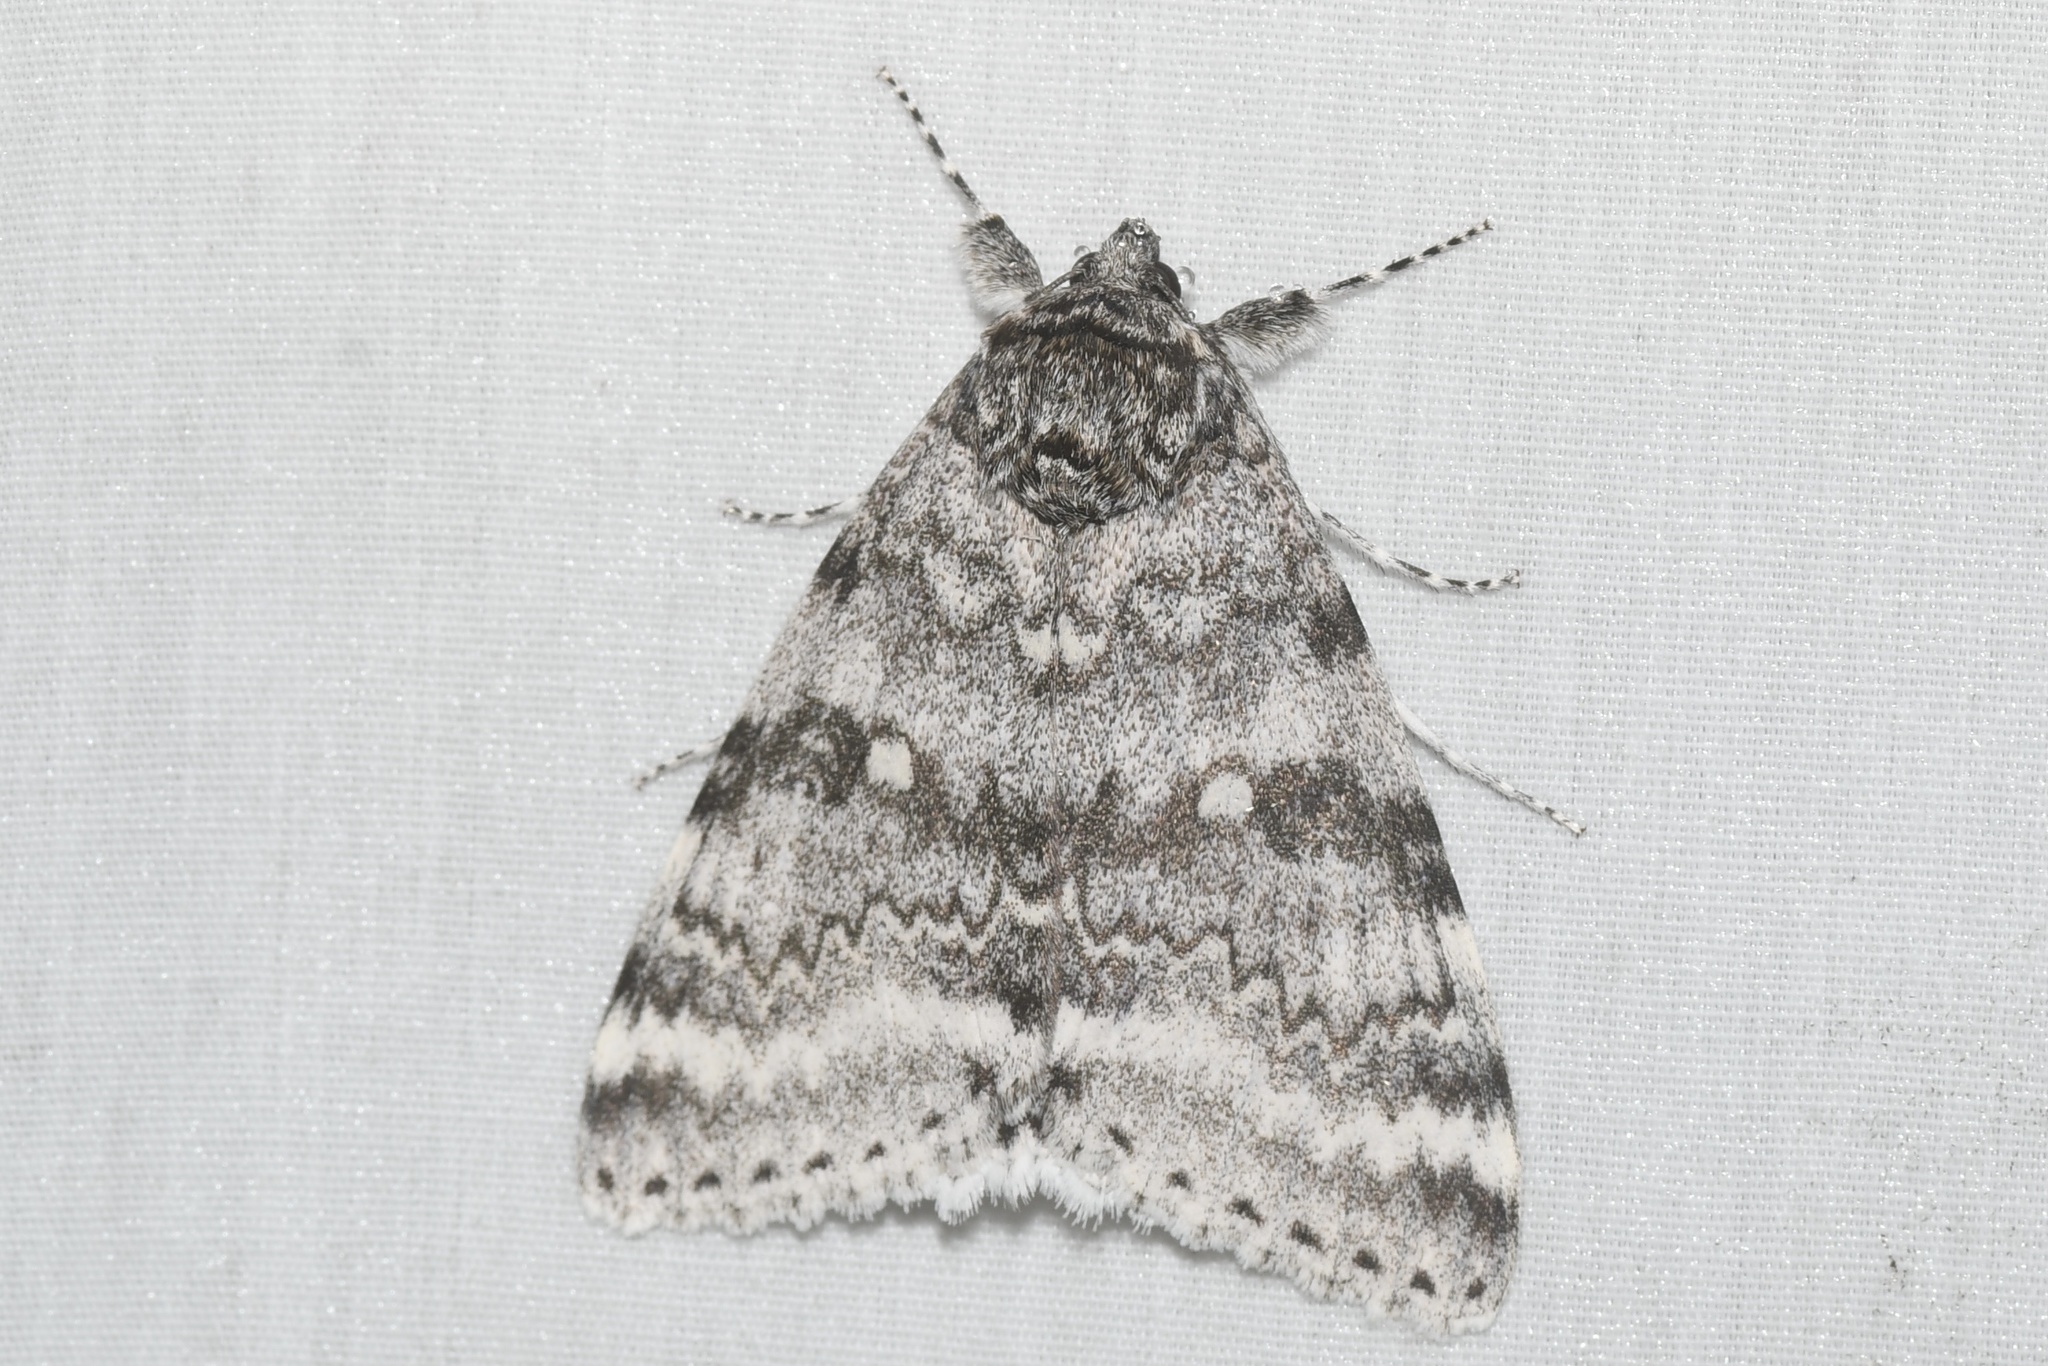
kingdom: Animalia
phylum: Arthropoda
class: Insecta
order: Lepidoptera
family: Erebidae
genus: Catocala
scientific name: Catocala relicta
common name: White underwing
